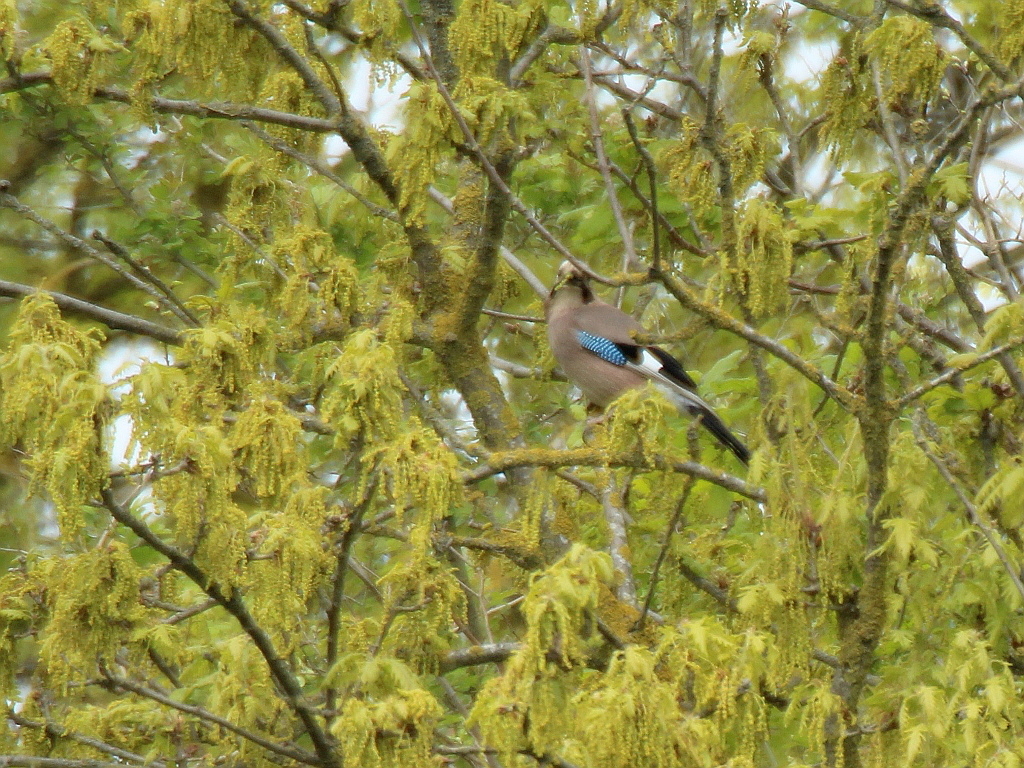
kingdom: Animalia
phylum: Chordata
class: Aves
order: Passeriformes
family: Corvidae
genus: Garrulus
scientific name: Garrulus glandarius
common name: Eurasian jay
